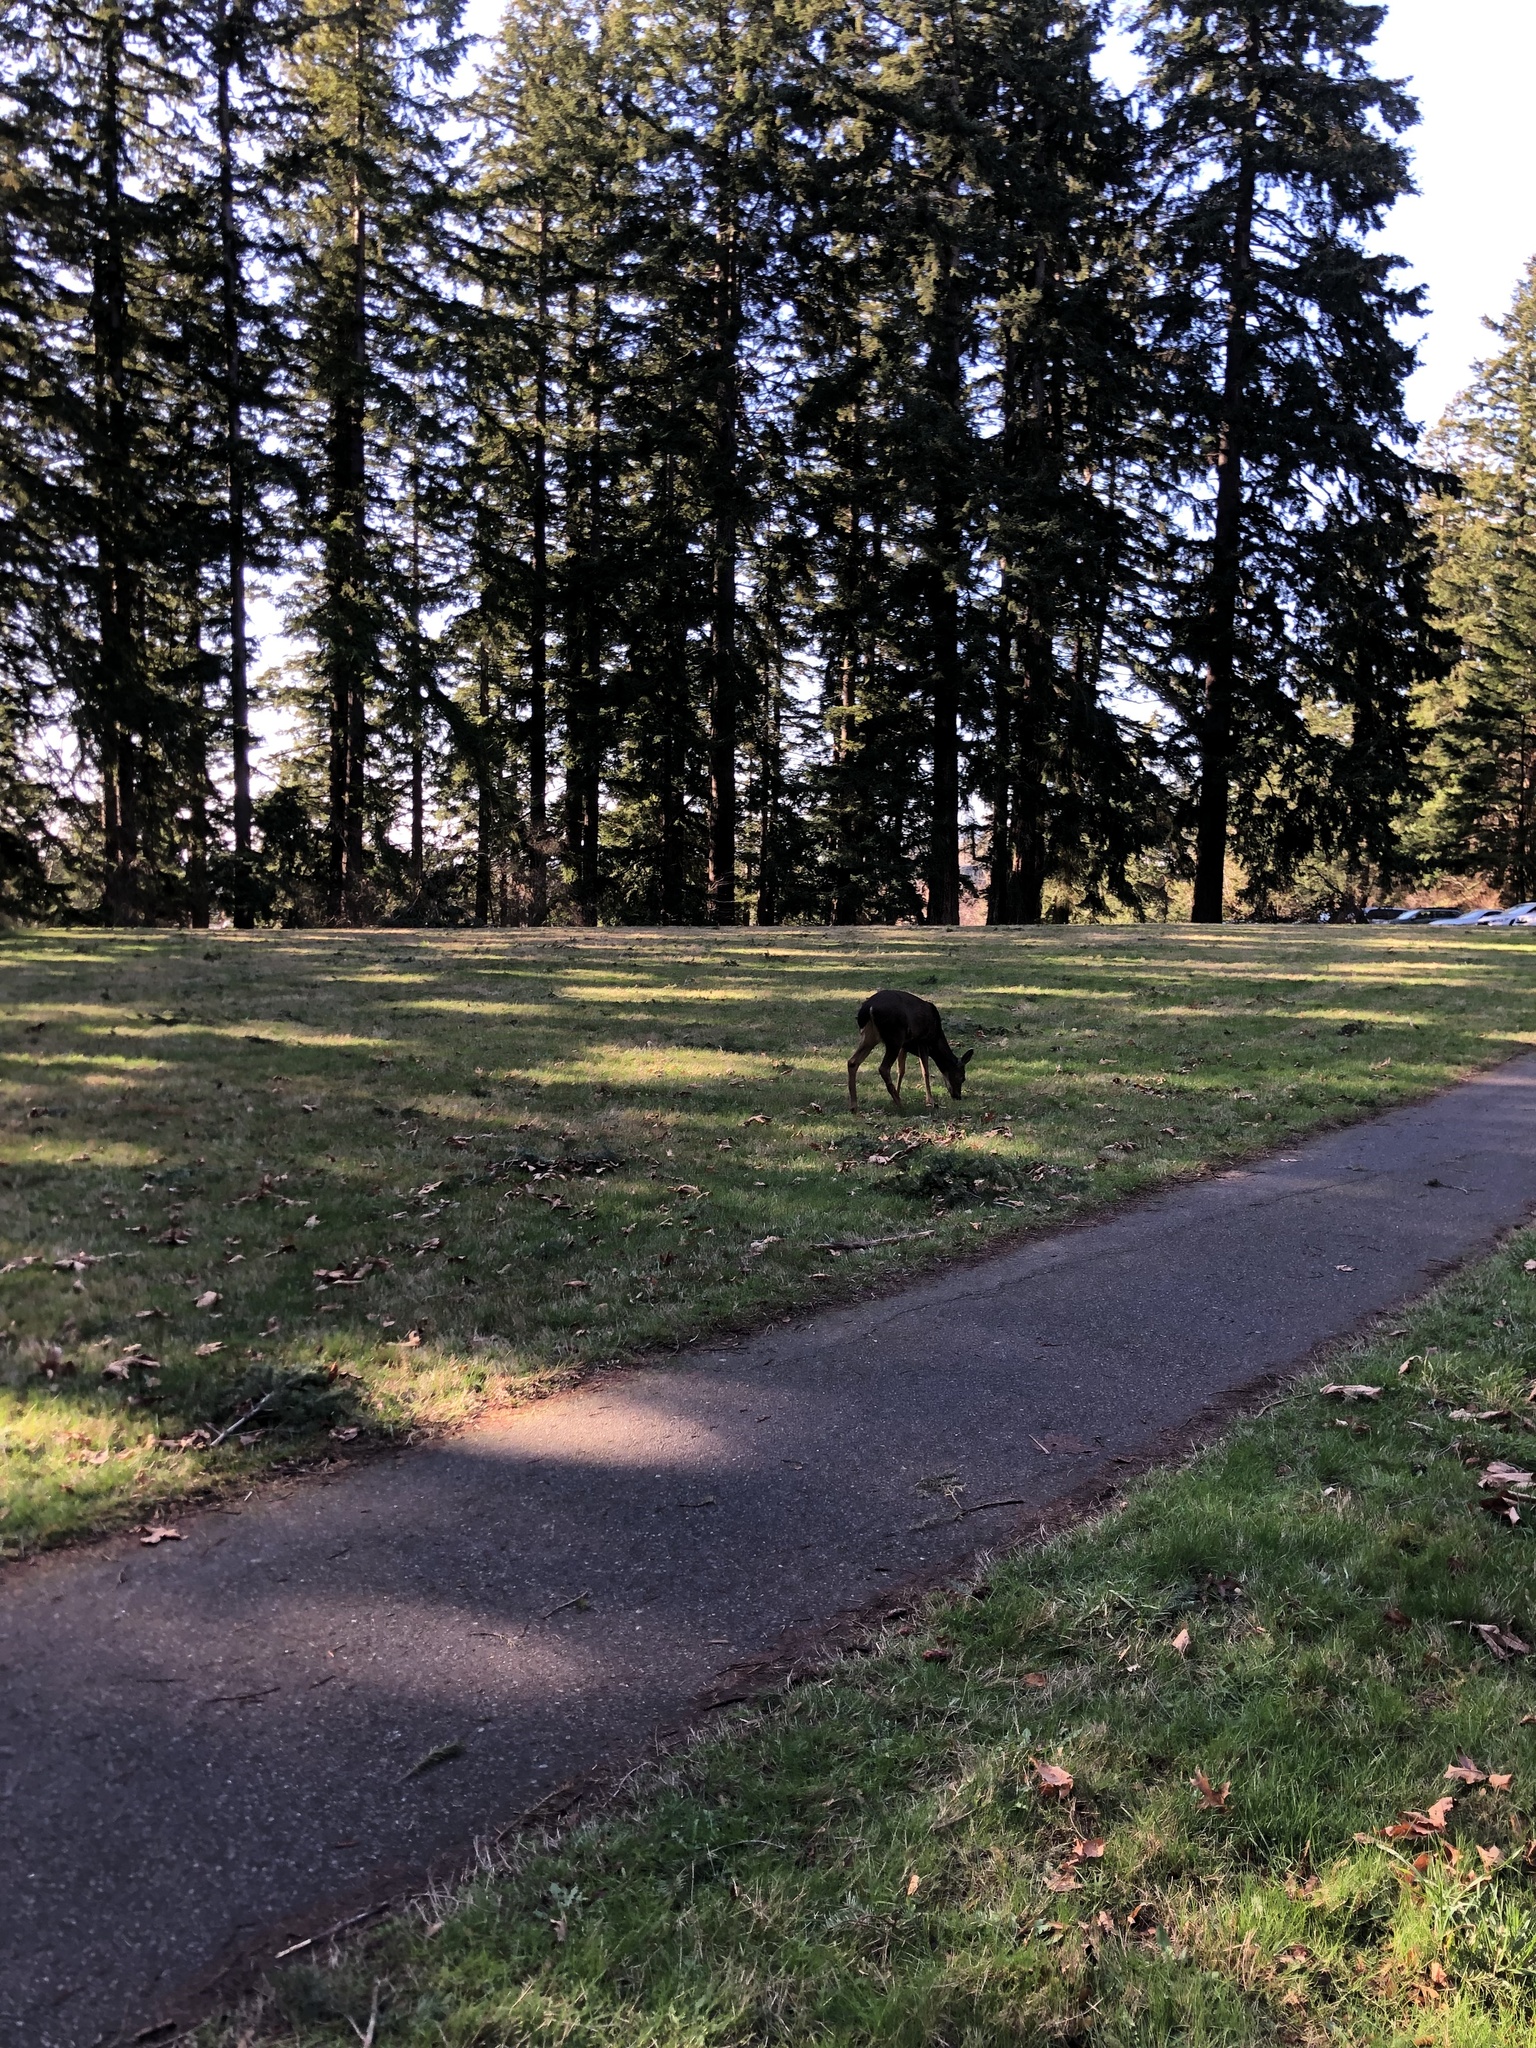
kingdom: Animalia
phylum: Chordata
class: Mammalia
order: Artiodactyla
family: Cervidae
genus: Odocoileus
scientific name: Odocoileus hemionus
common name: Mule deer
